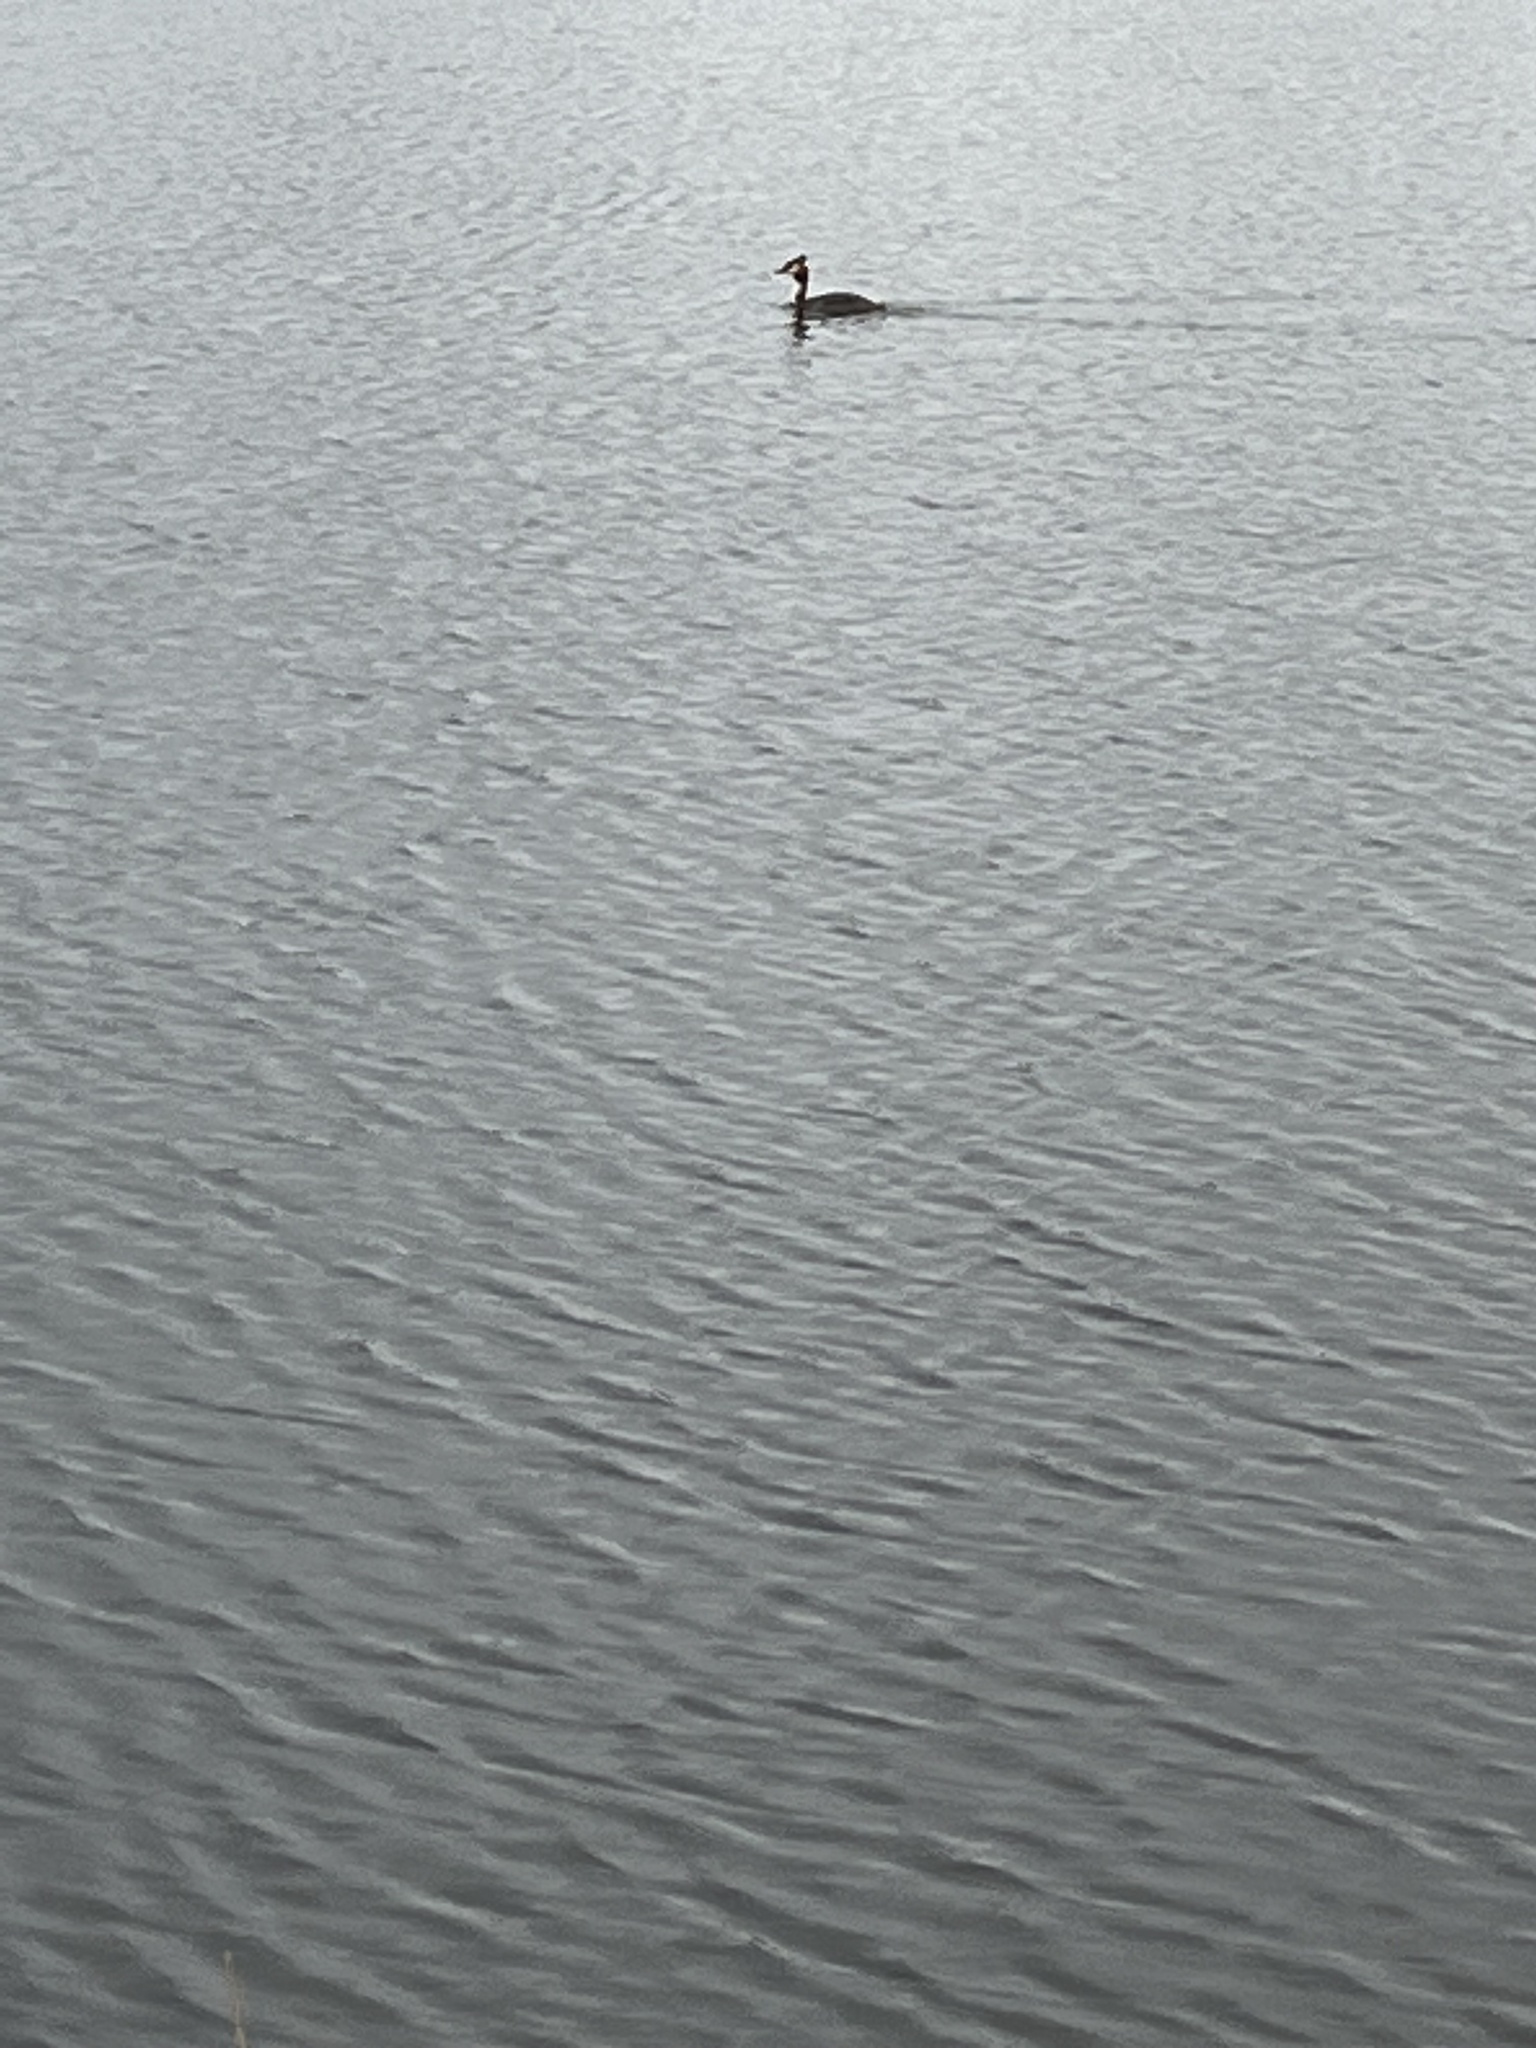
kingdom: Animalia
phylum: Chordata
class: Aves
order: Podicipediformes
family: Podicipedidae
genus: Podiceps
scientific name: Podiceps cristatus
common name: Great crested grebe
